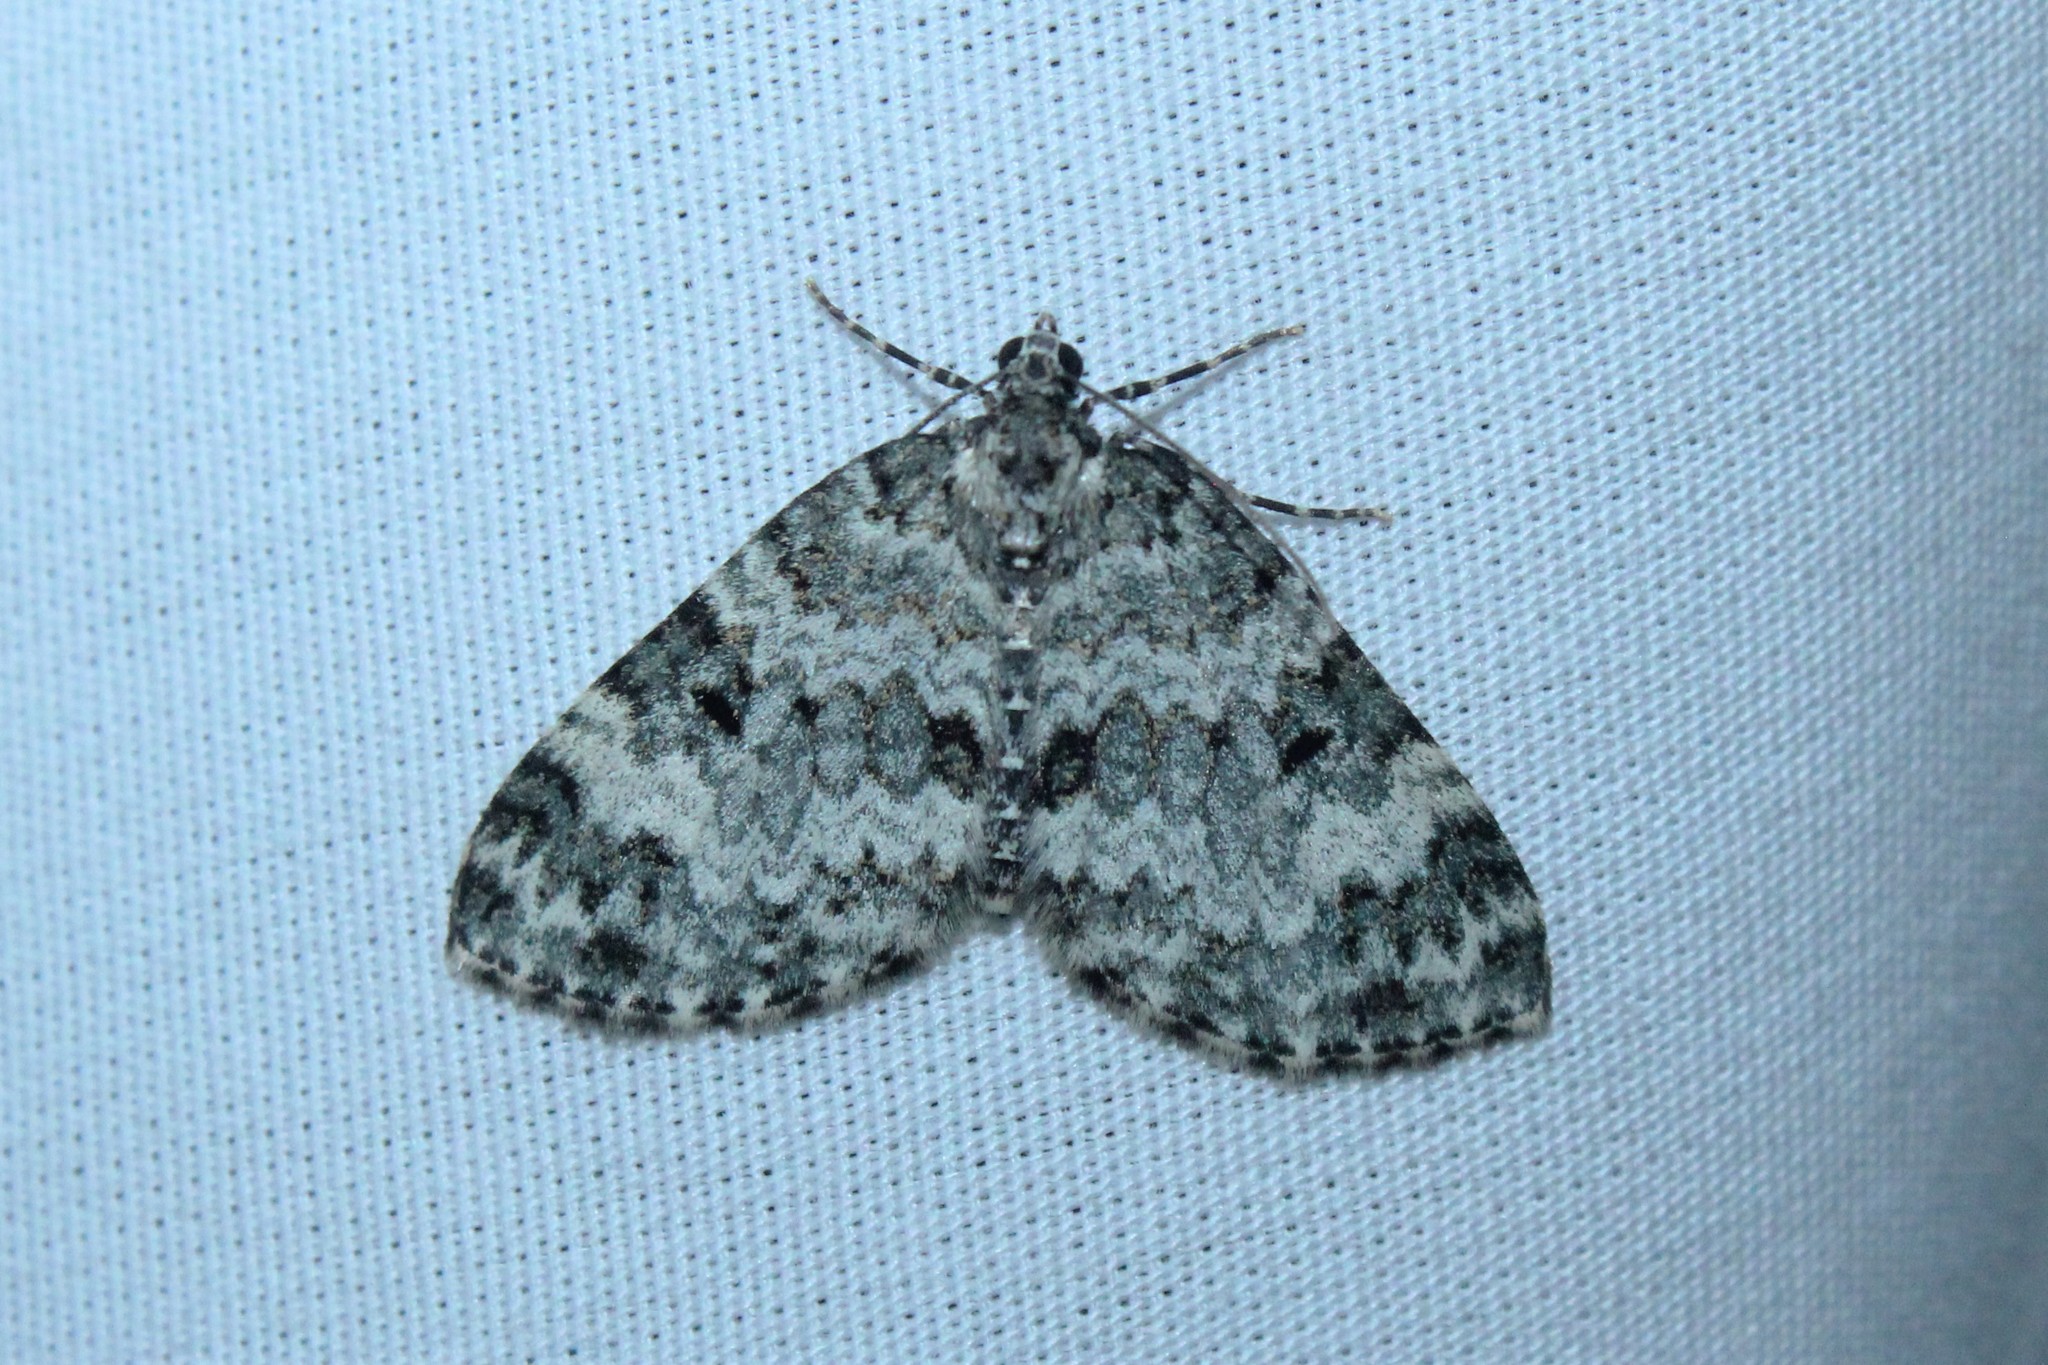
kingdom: Animalia
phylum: Arthropoda
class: Insecta
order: Lepidoptera
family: Geometridae
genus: Spargania
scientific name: Spargania magnoliata
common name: Double-banded carpet
